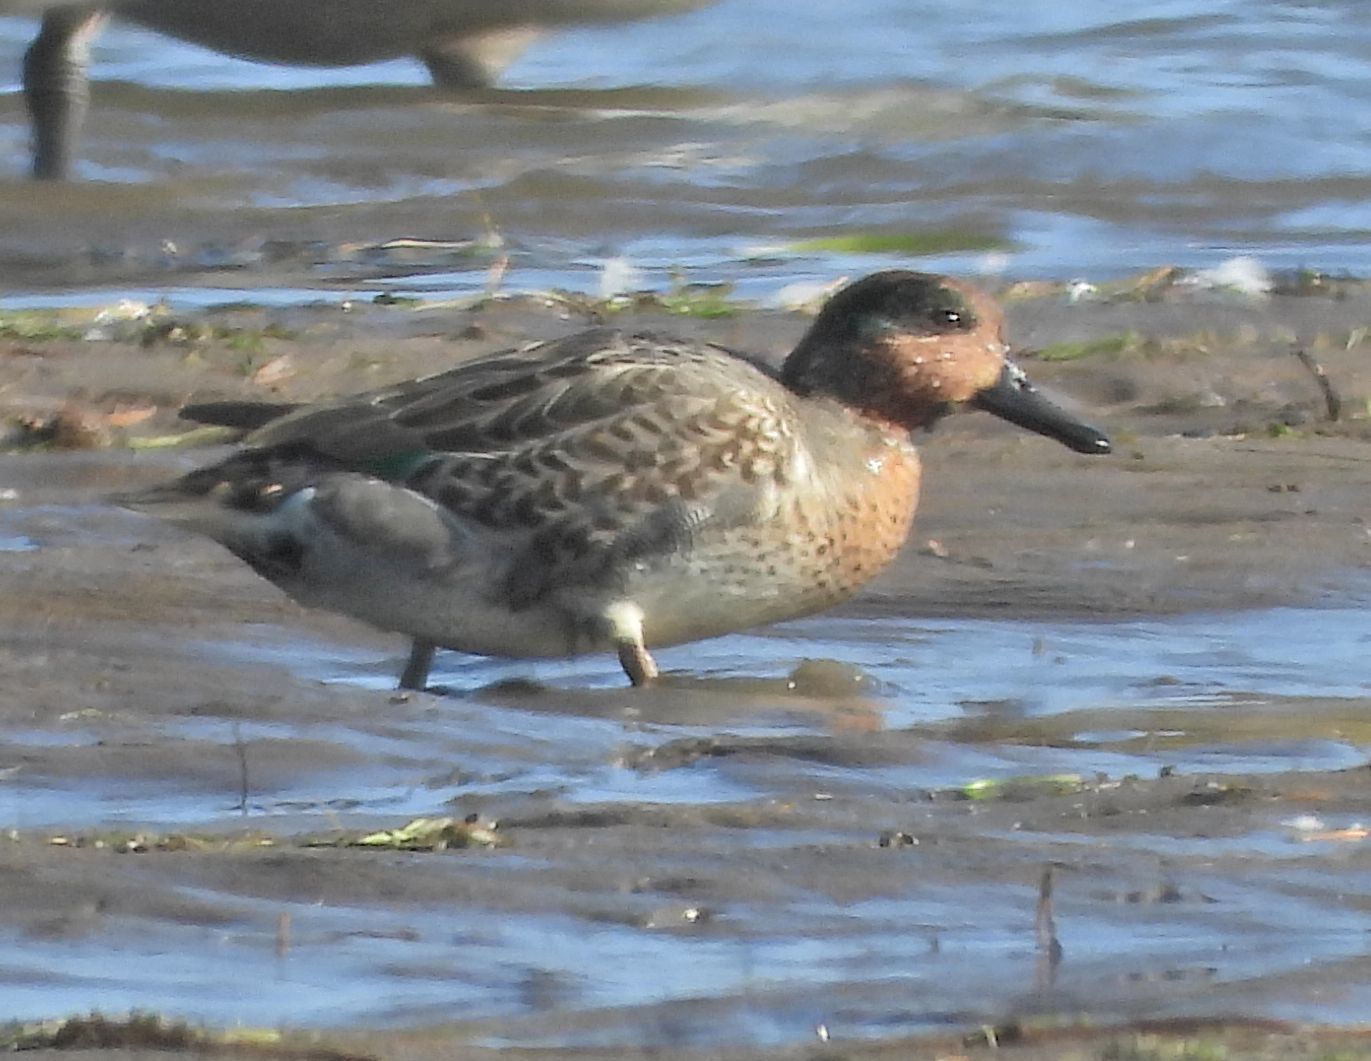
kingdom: Animalia
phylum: Chordata
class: Aves
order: Anseriformes
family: Anatidae
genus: Anas
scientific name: Anas crecca
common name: Eurasian teal
